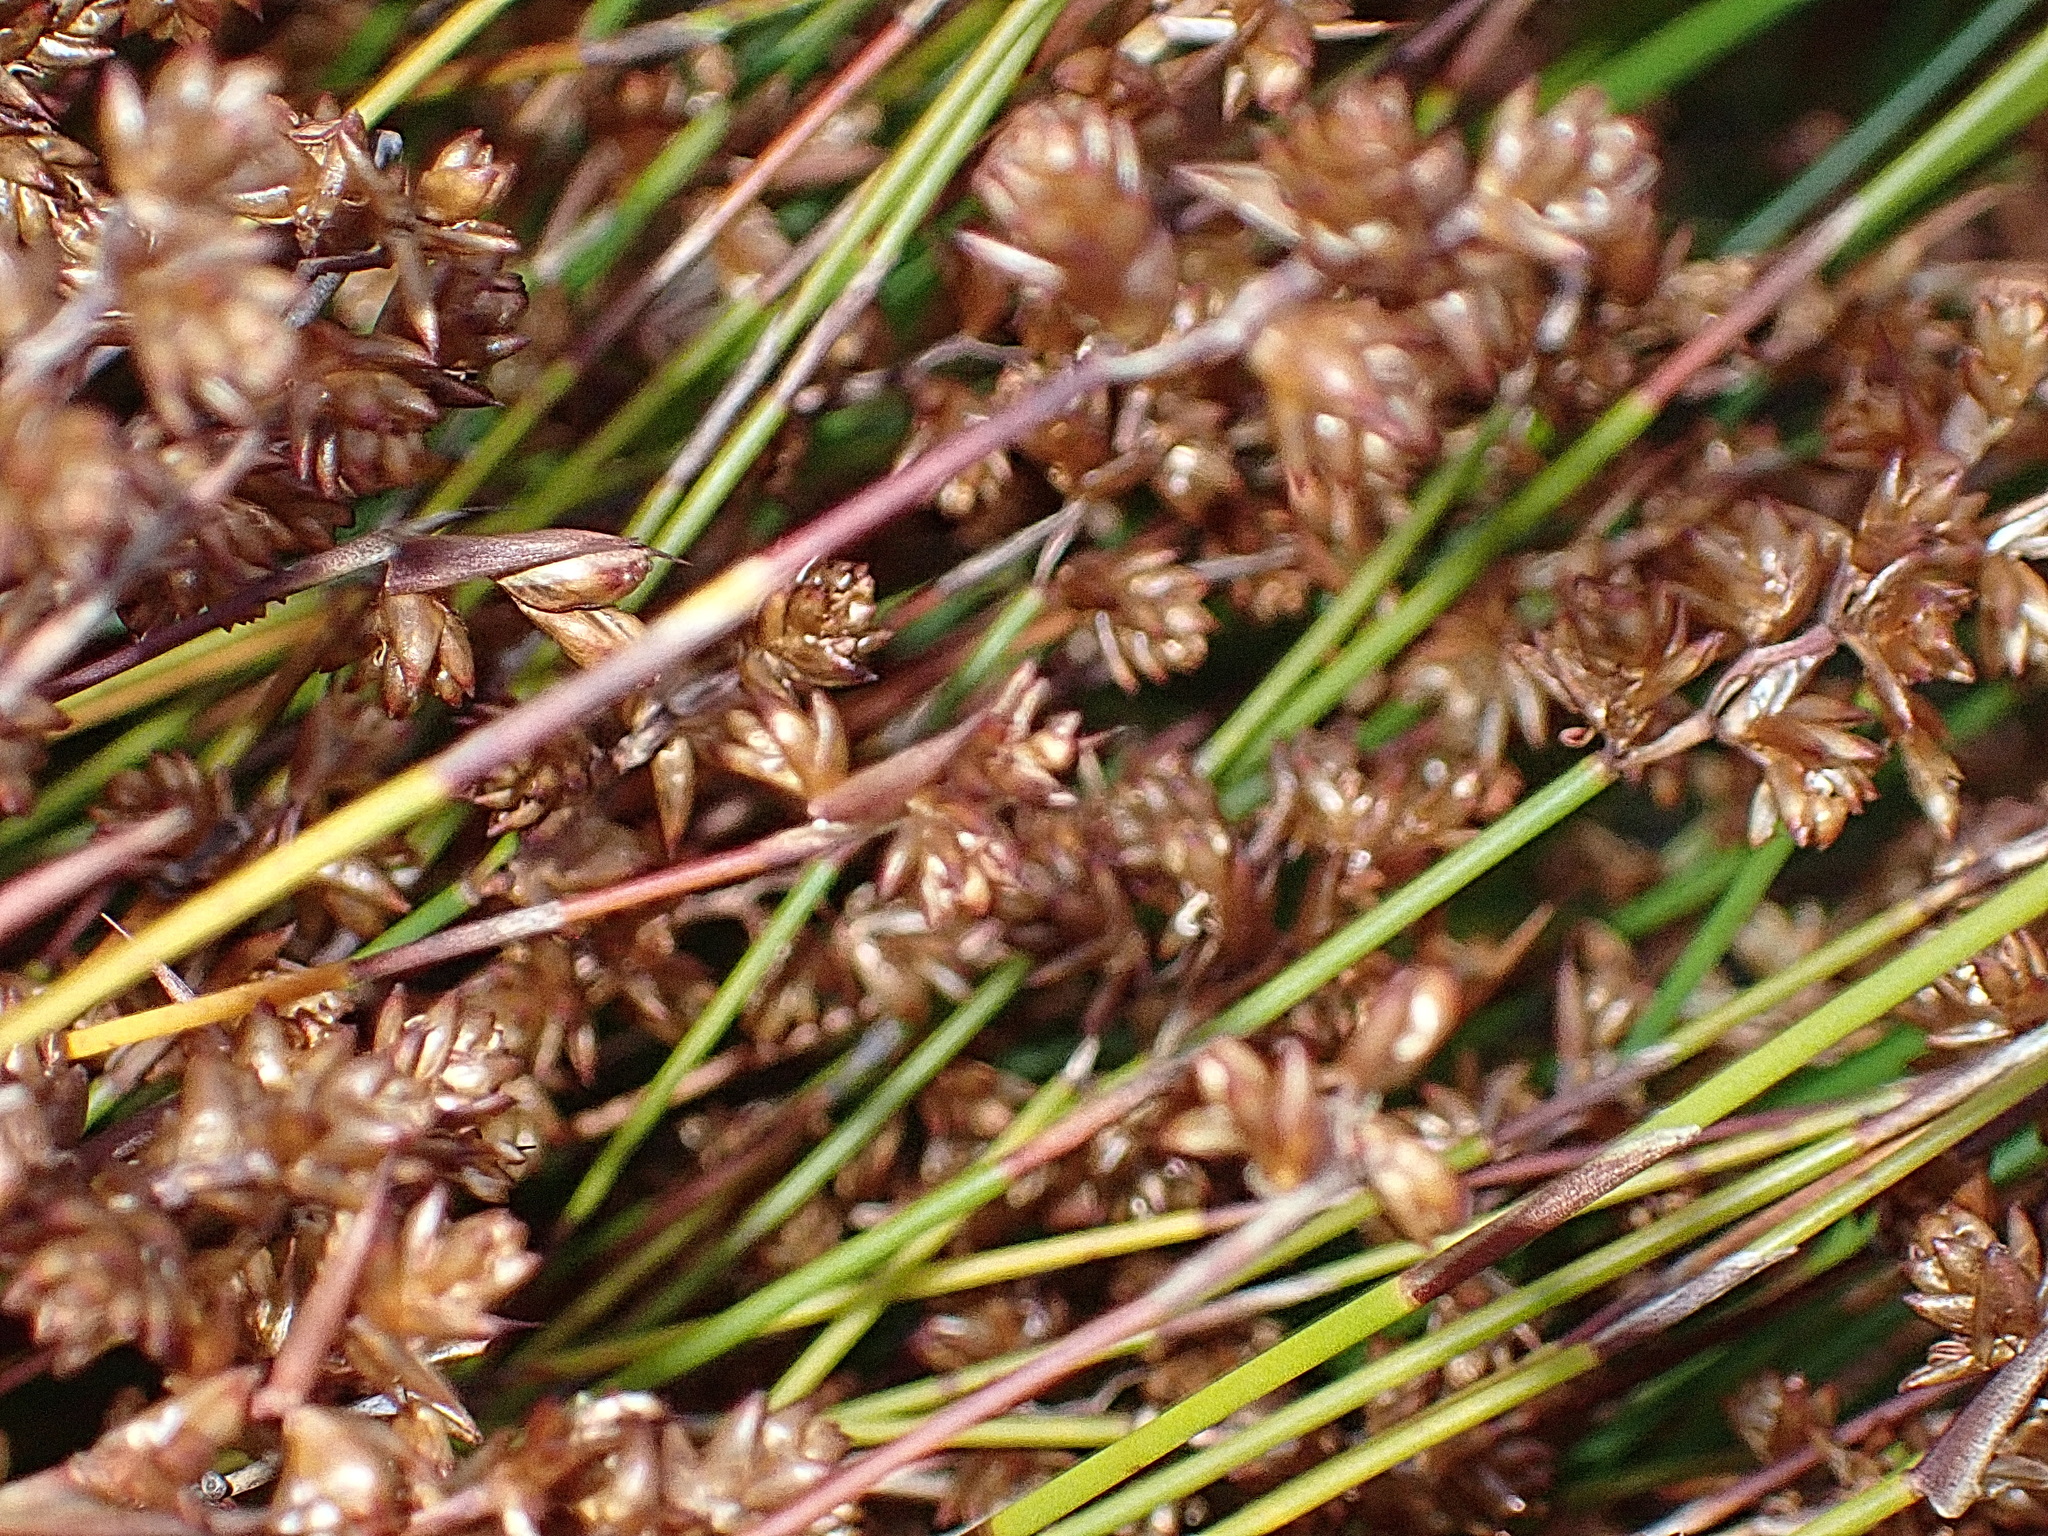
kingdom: Plantae
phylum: Tracheophyta
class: Liliopsida
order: Poales
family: Restionaceae
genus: Mastersiella
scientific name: Mastersiella purpurea
